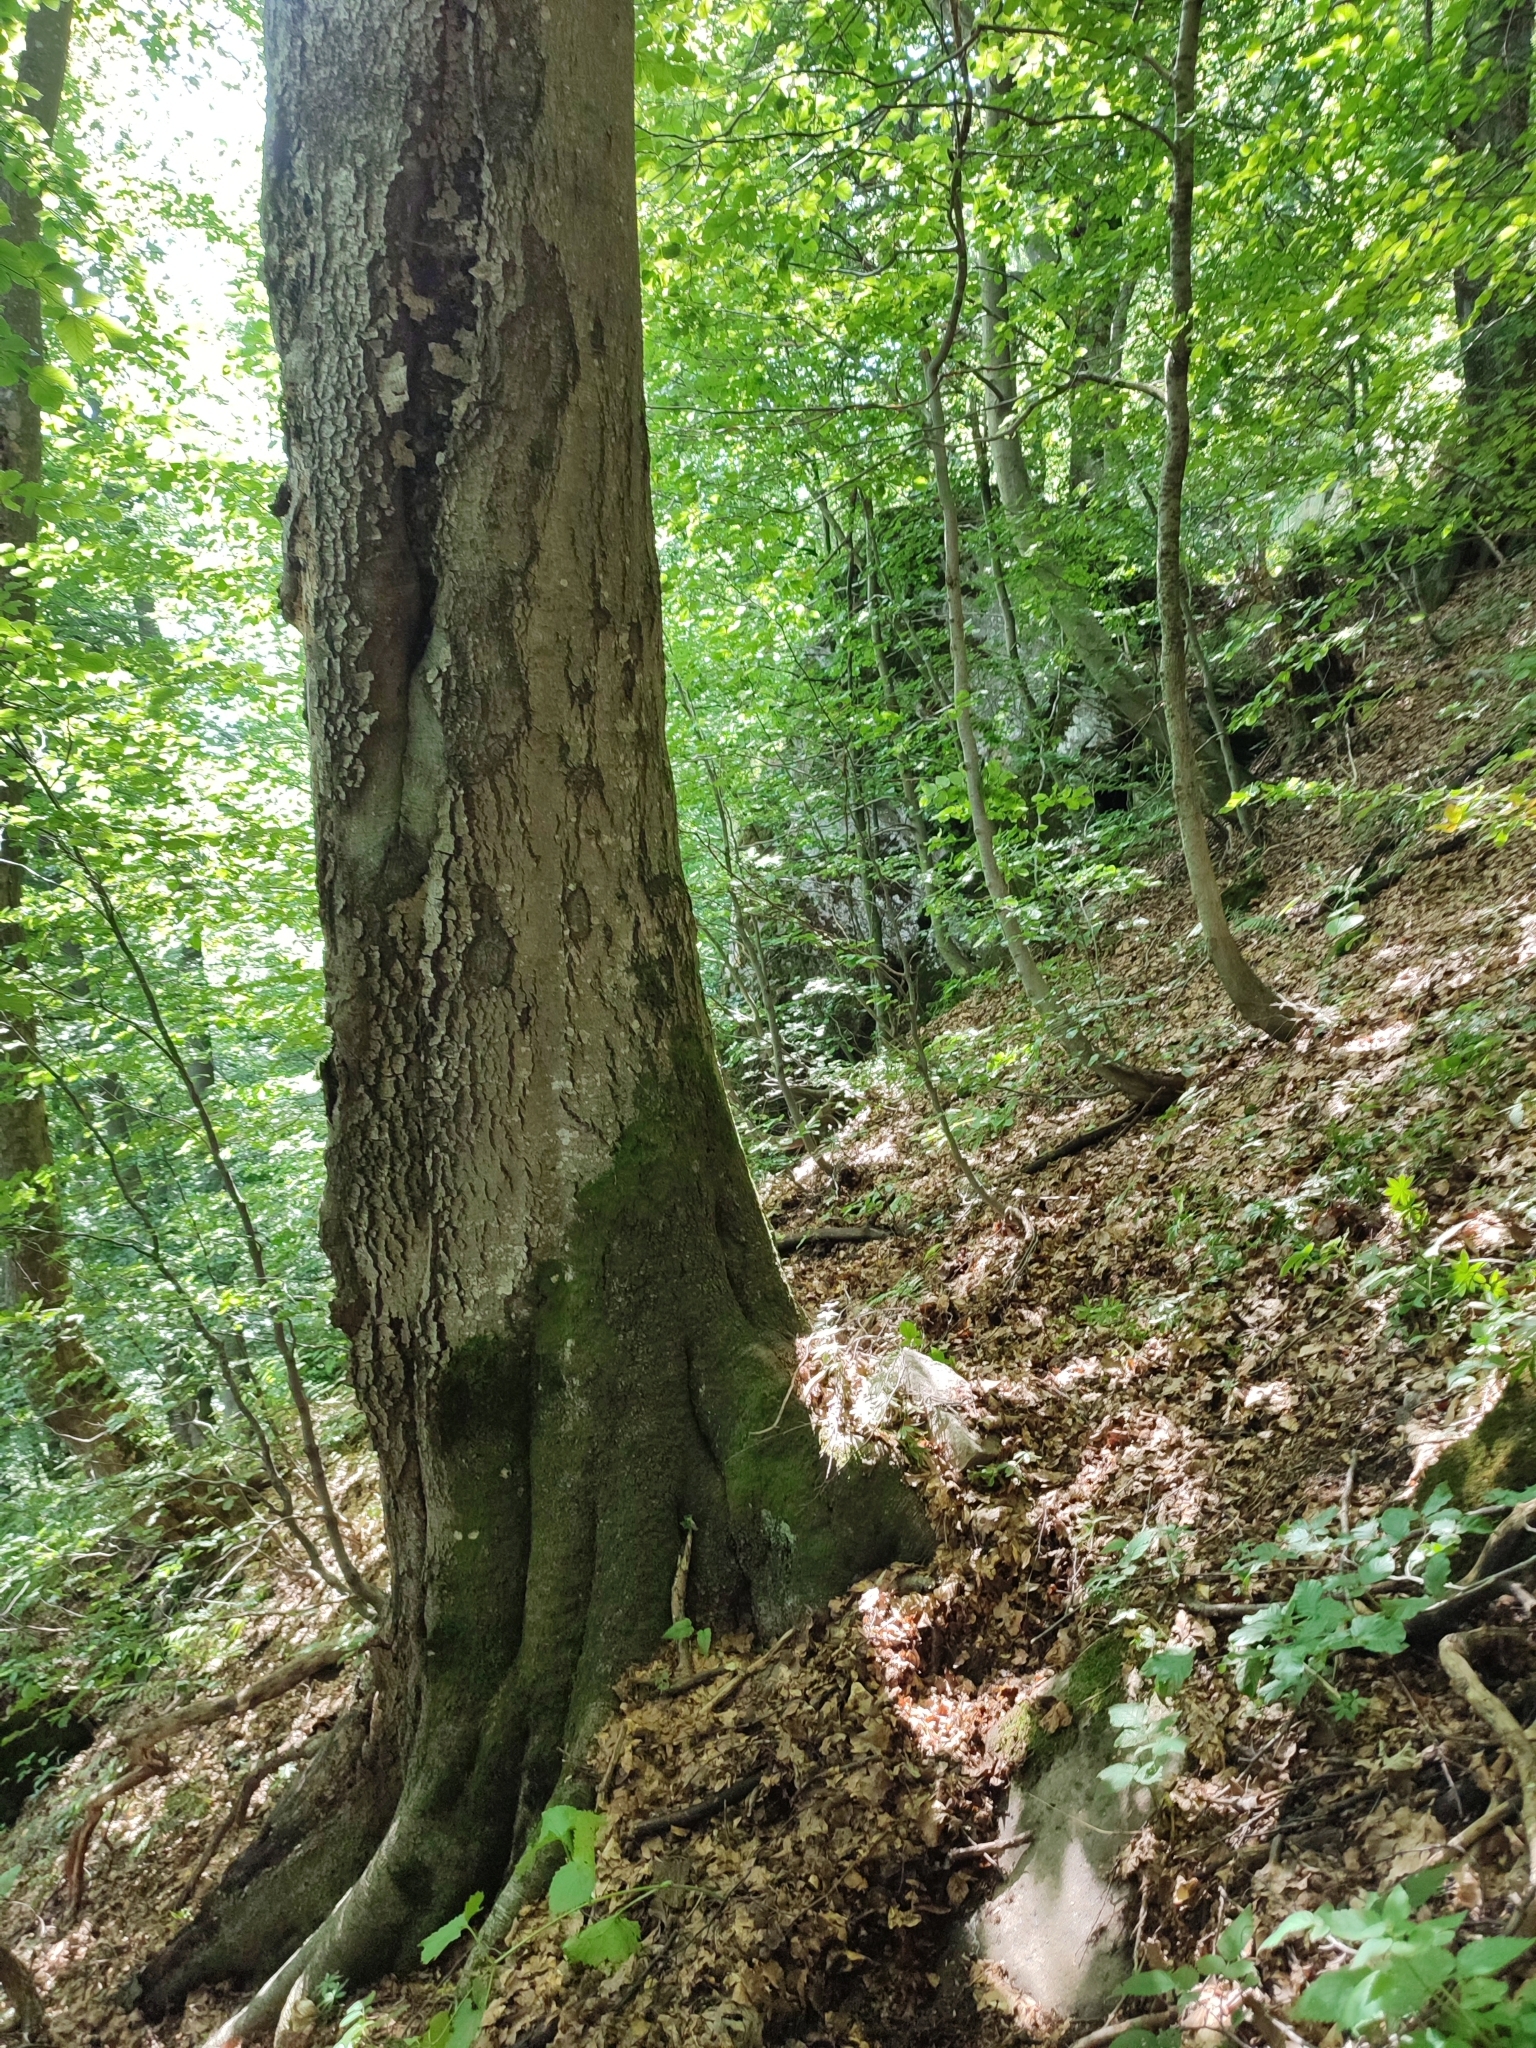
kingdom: Plantae
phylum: Tracheophyta
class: Magnoliopsida
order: Fagales
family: Fagaceae
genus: Fagus
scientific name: Fagus sylvatica
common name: Beech
